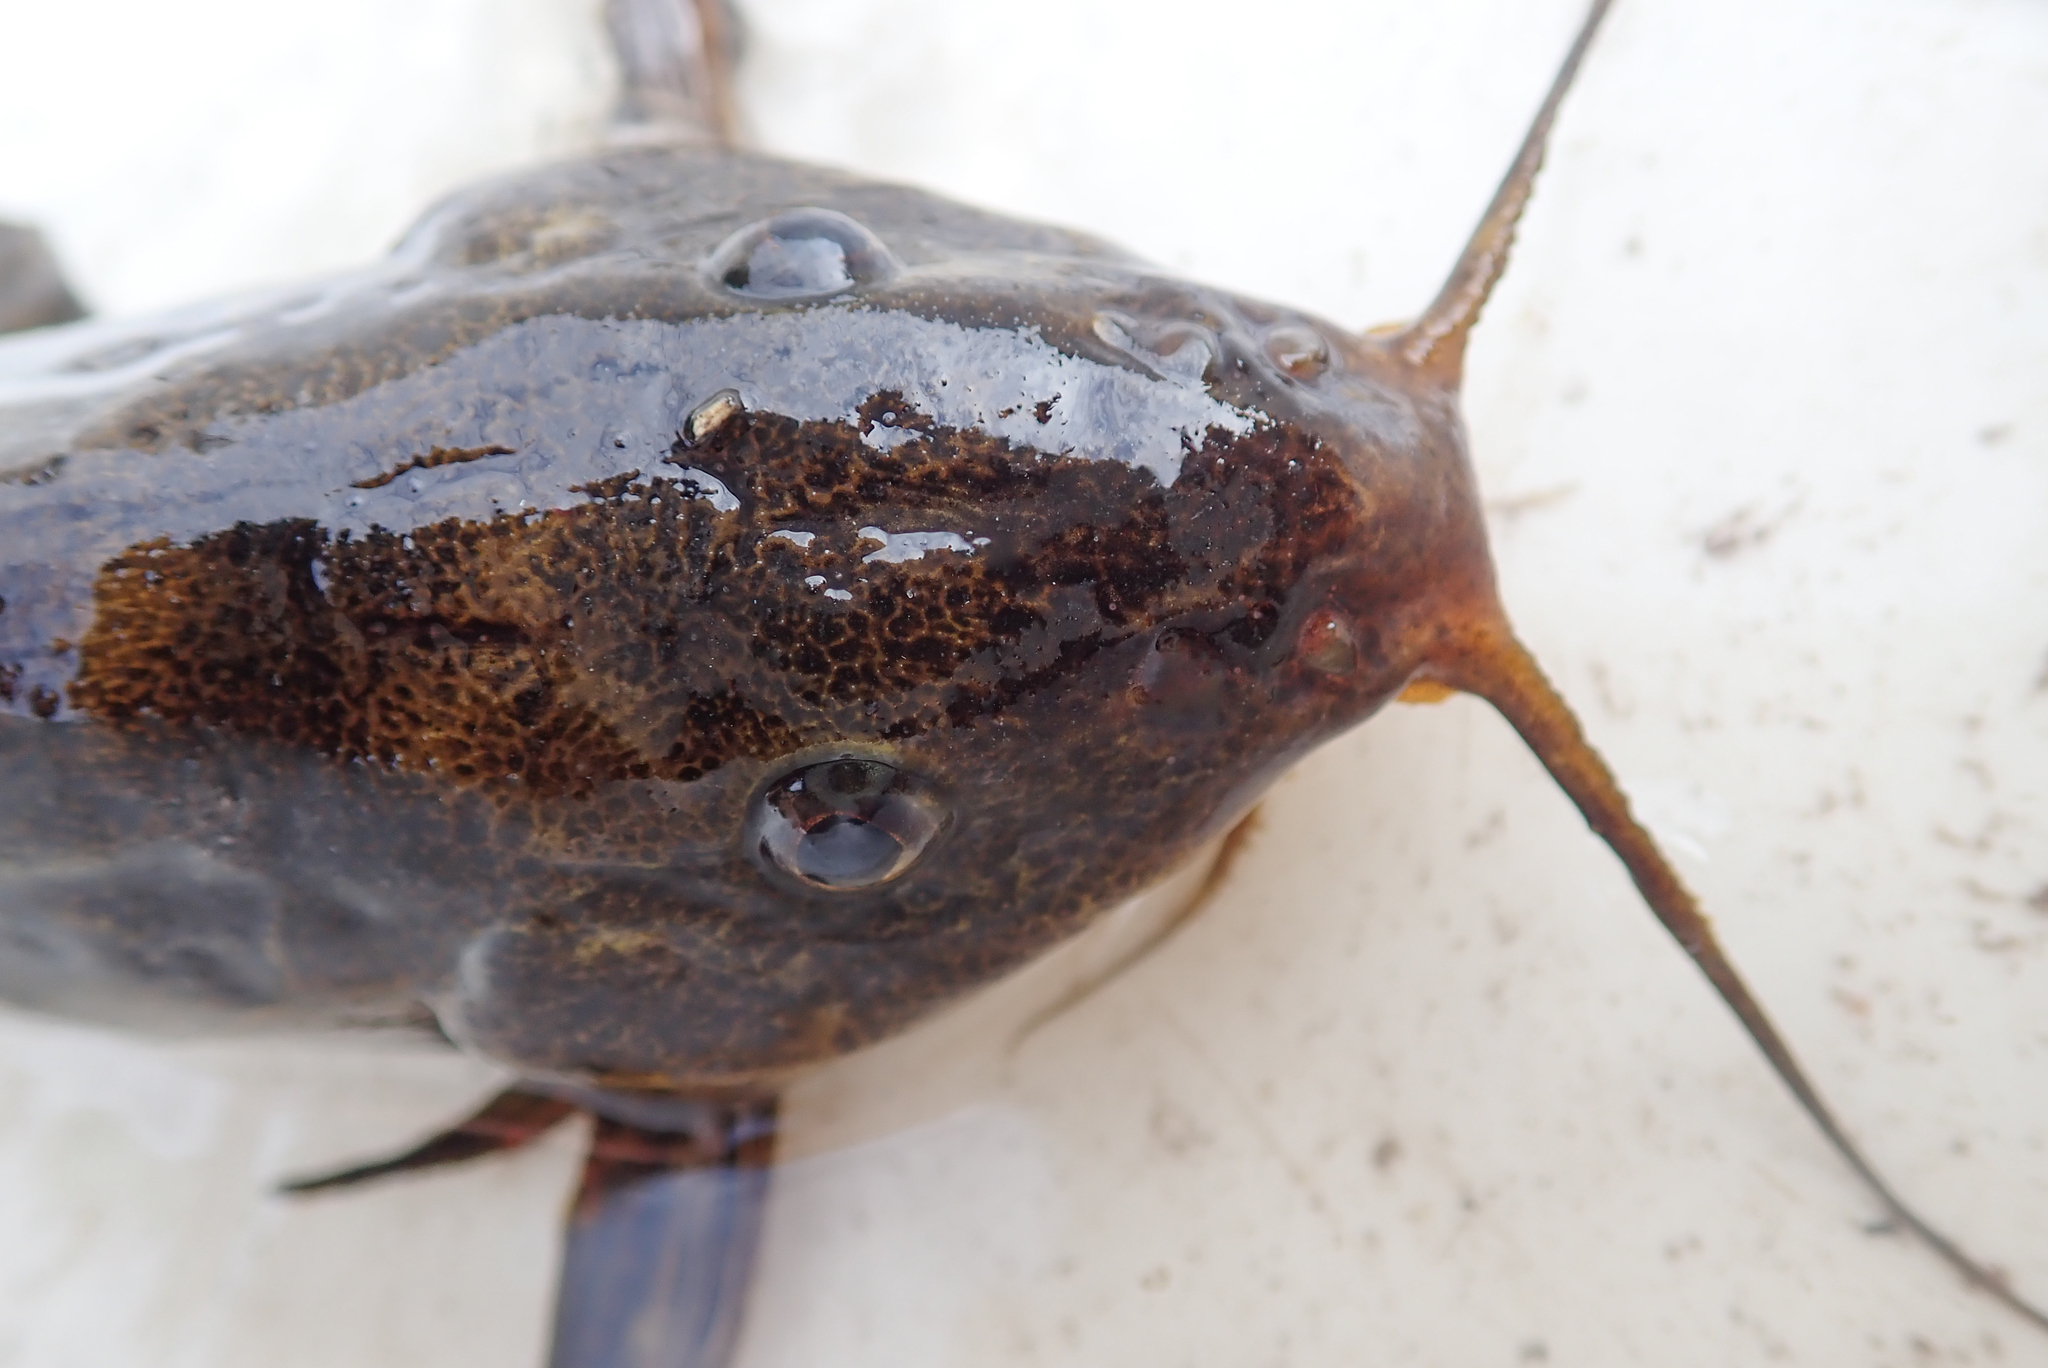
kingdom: Animalia
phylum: Chordata
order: Siluriformes
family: Mochokidae
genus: Synodontis
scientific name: Synodontis thamalakanensis
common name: Bubblebarb squeaker
